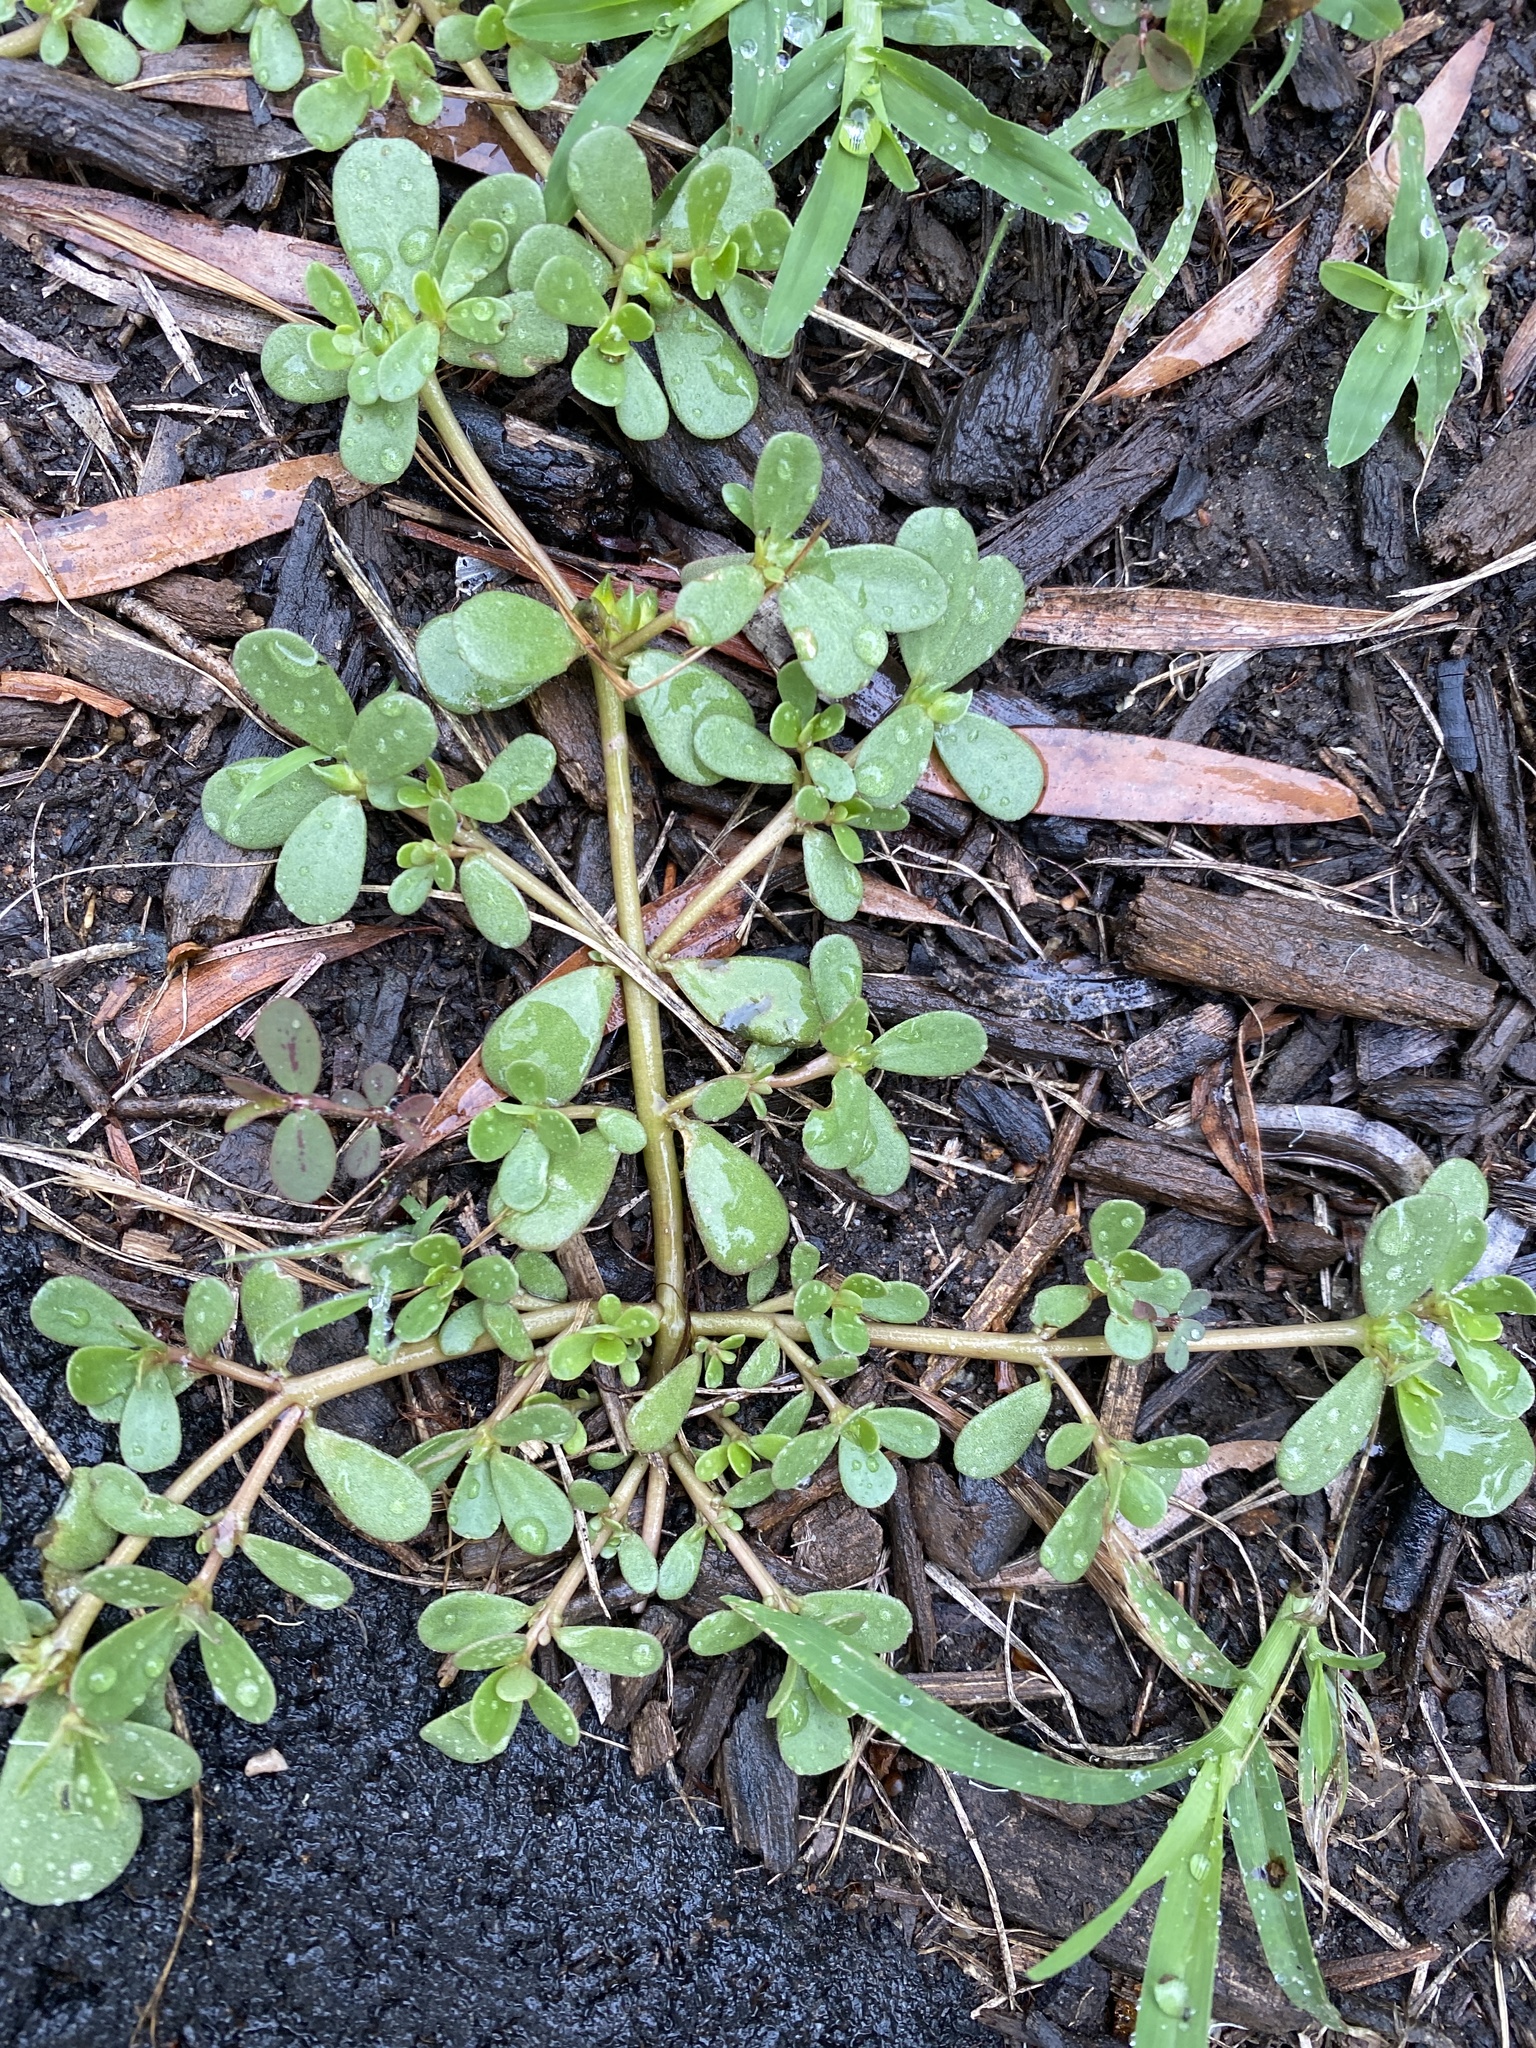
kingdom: Plantae
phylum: Tracheophyta
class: Magnoliopsida
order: Caryophyllales
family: Portulacaceae
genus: Portulaca
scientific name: Portulaca oleracea
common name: Common purslane
